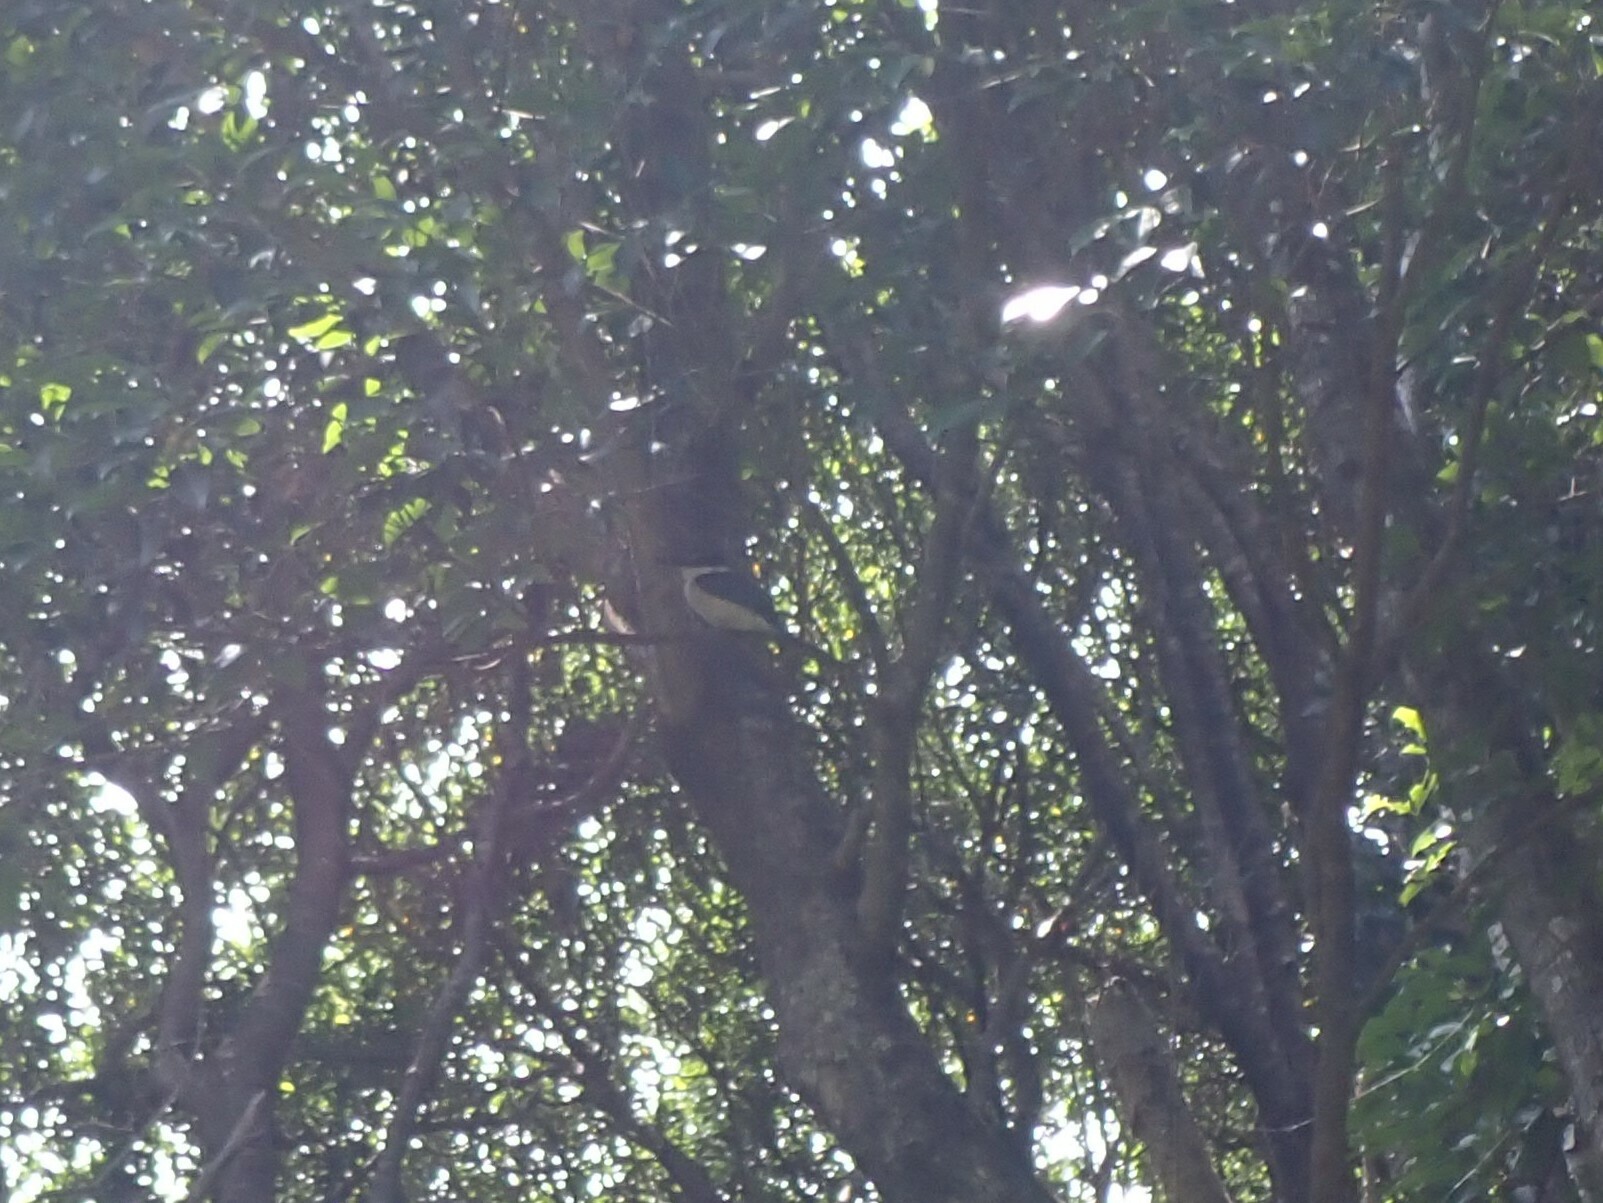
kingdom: Animalia
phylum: Chordata
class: Aves
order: Coraciiformes
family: Alcedinidae
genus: Todiramphus
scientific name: Todiramphus sanctus
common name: Sacred kingfisher
